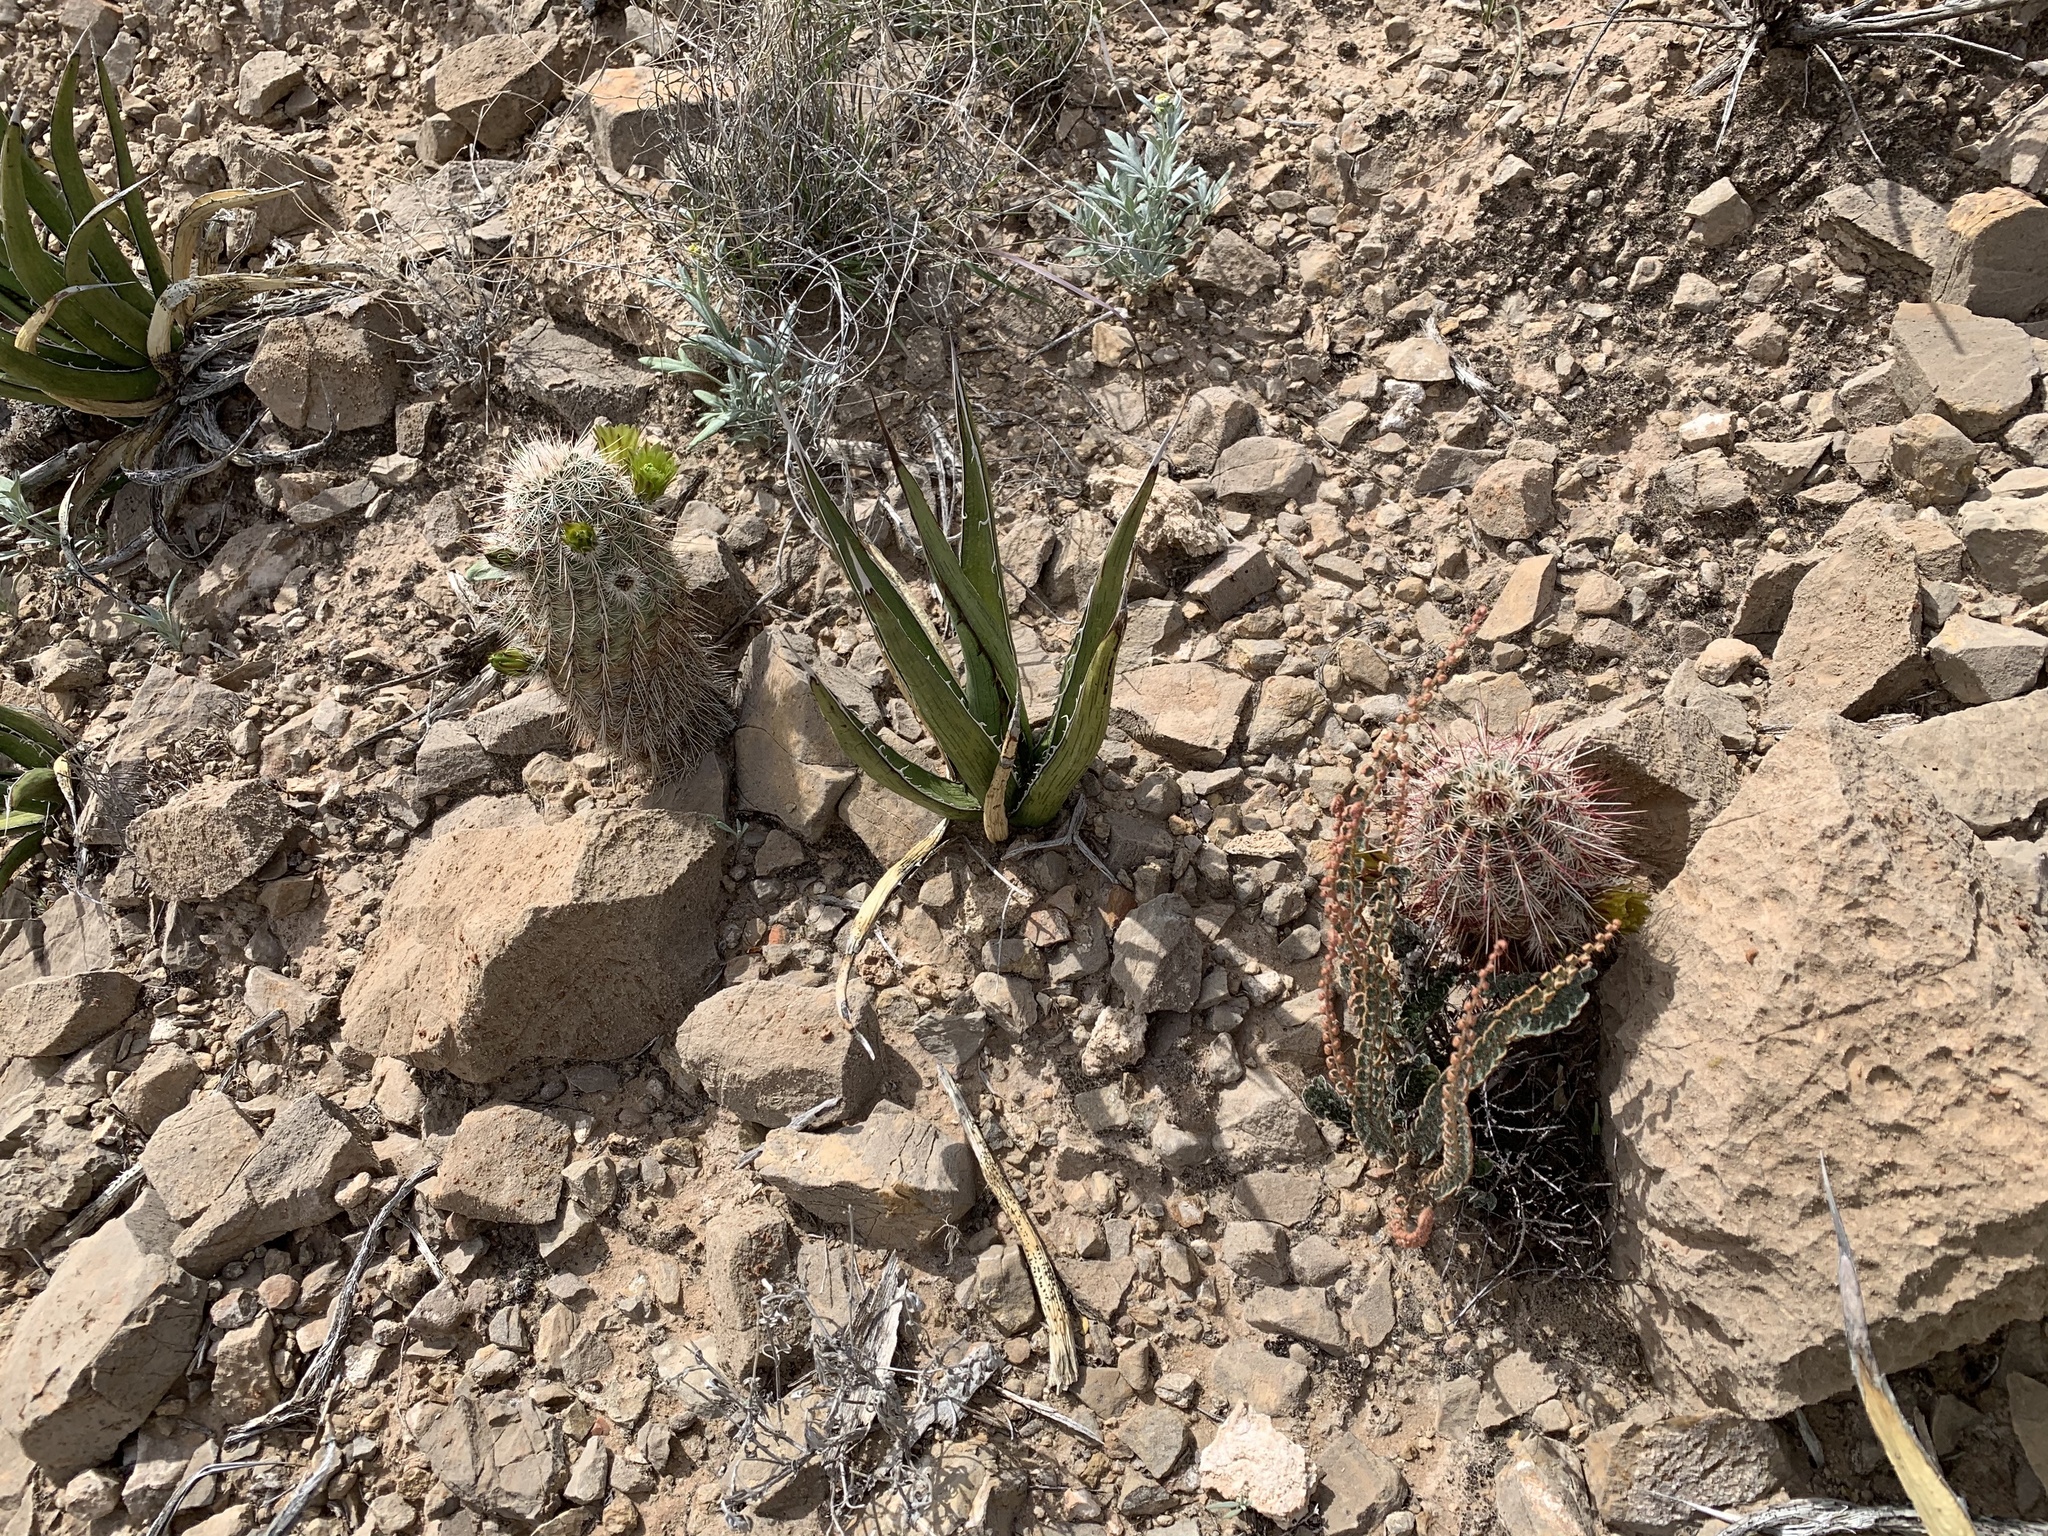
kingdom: Plantae
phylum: Tracheophyta
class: Magnoliopsida
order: Caryophyllales
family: Cactaceae
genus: Echinocereus
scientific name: Echinocereus viridiflorus
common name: Nylon hedgehog cactus
